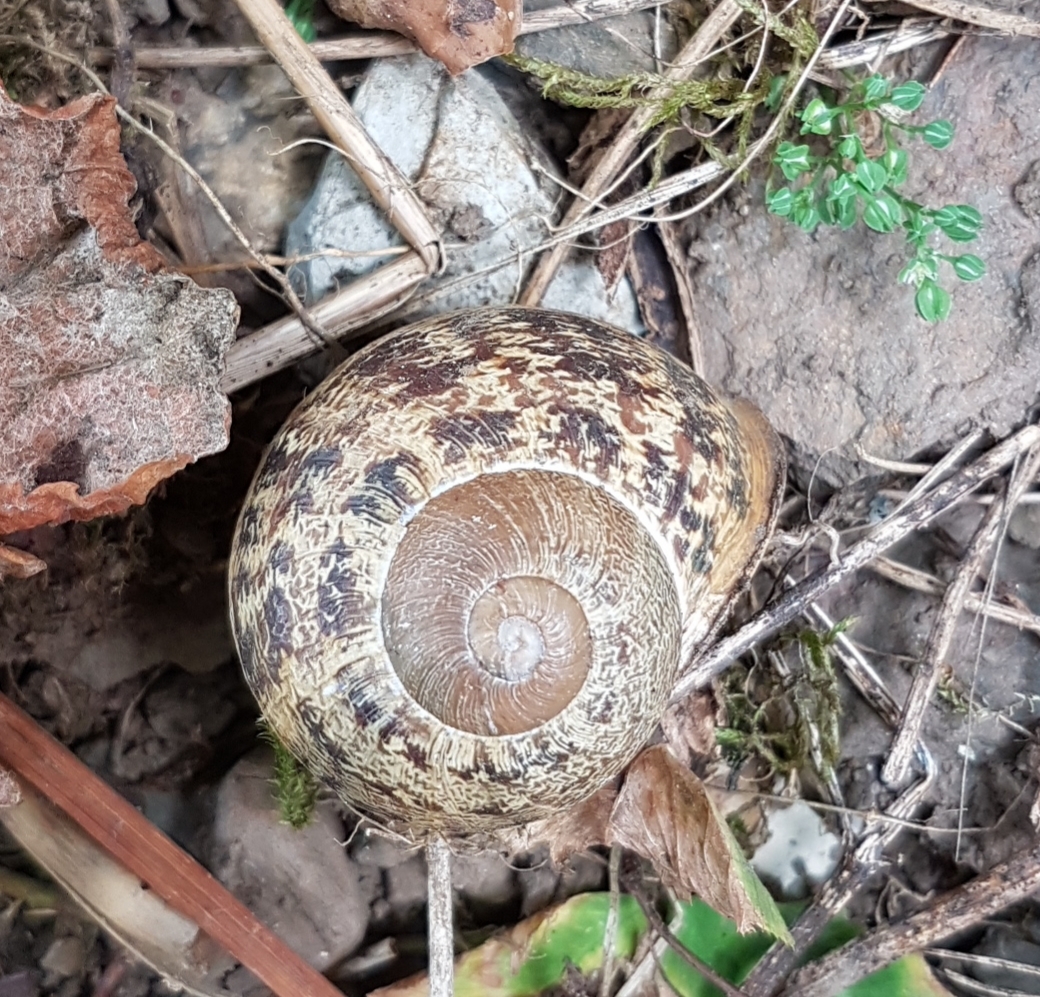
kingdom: Animalia
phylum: Mollusca
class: Gastropoda
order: Stylommatophora
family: Helicidae
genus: Cornu
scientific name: Cornu aspersum
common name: Brown garden snail
